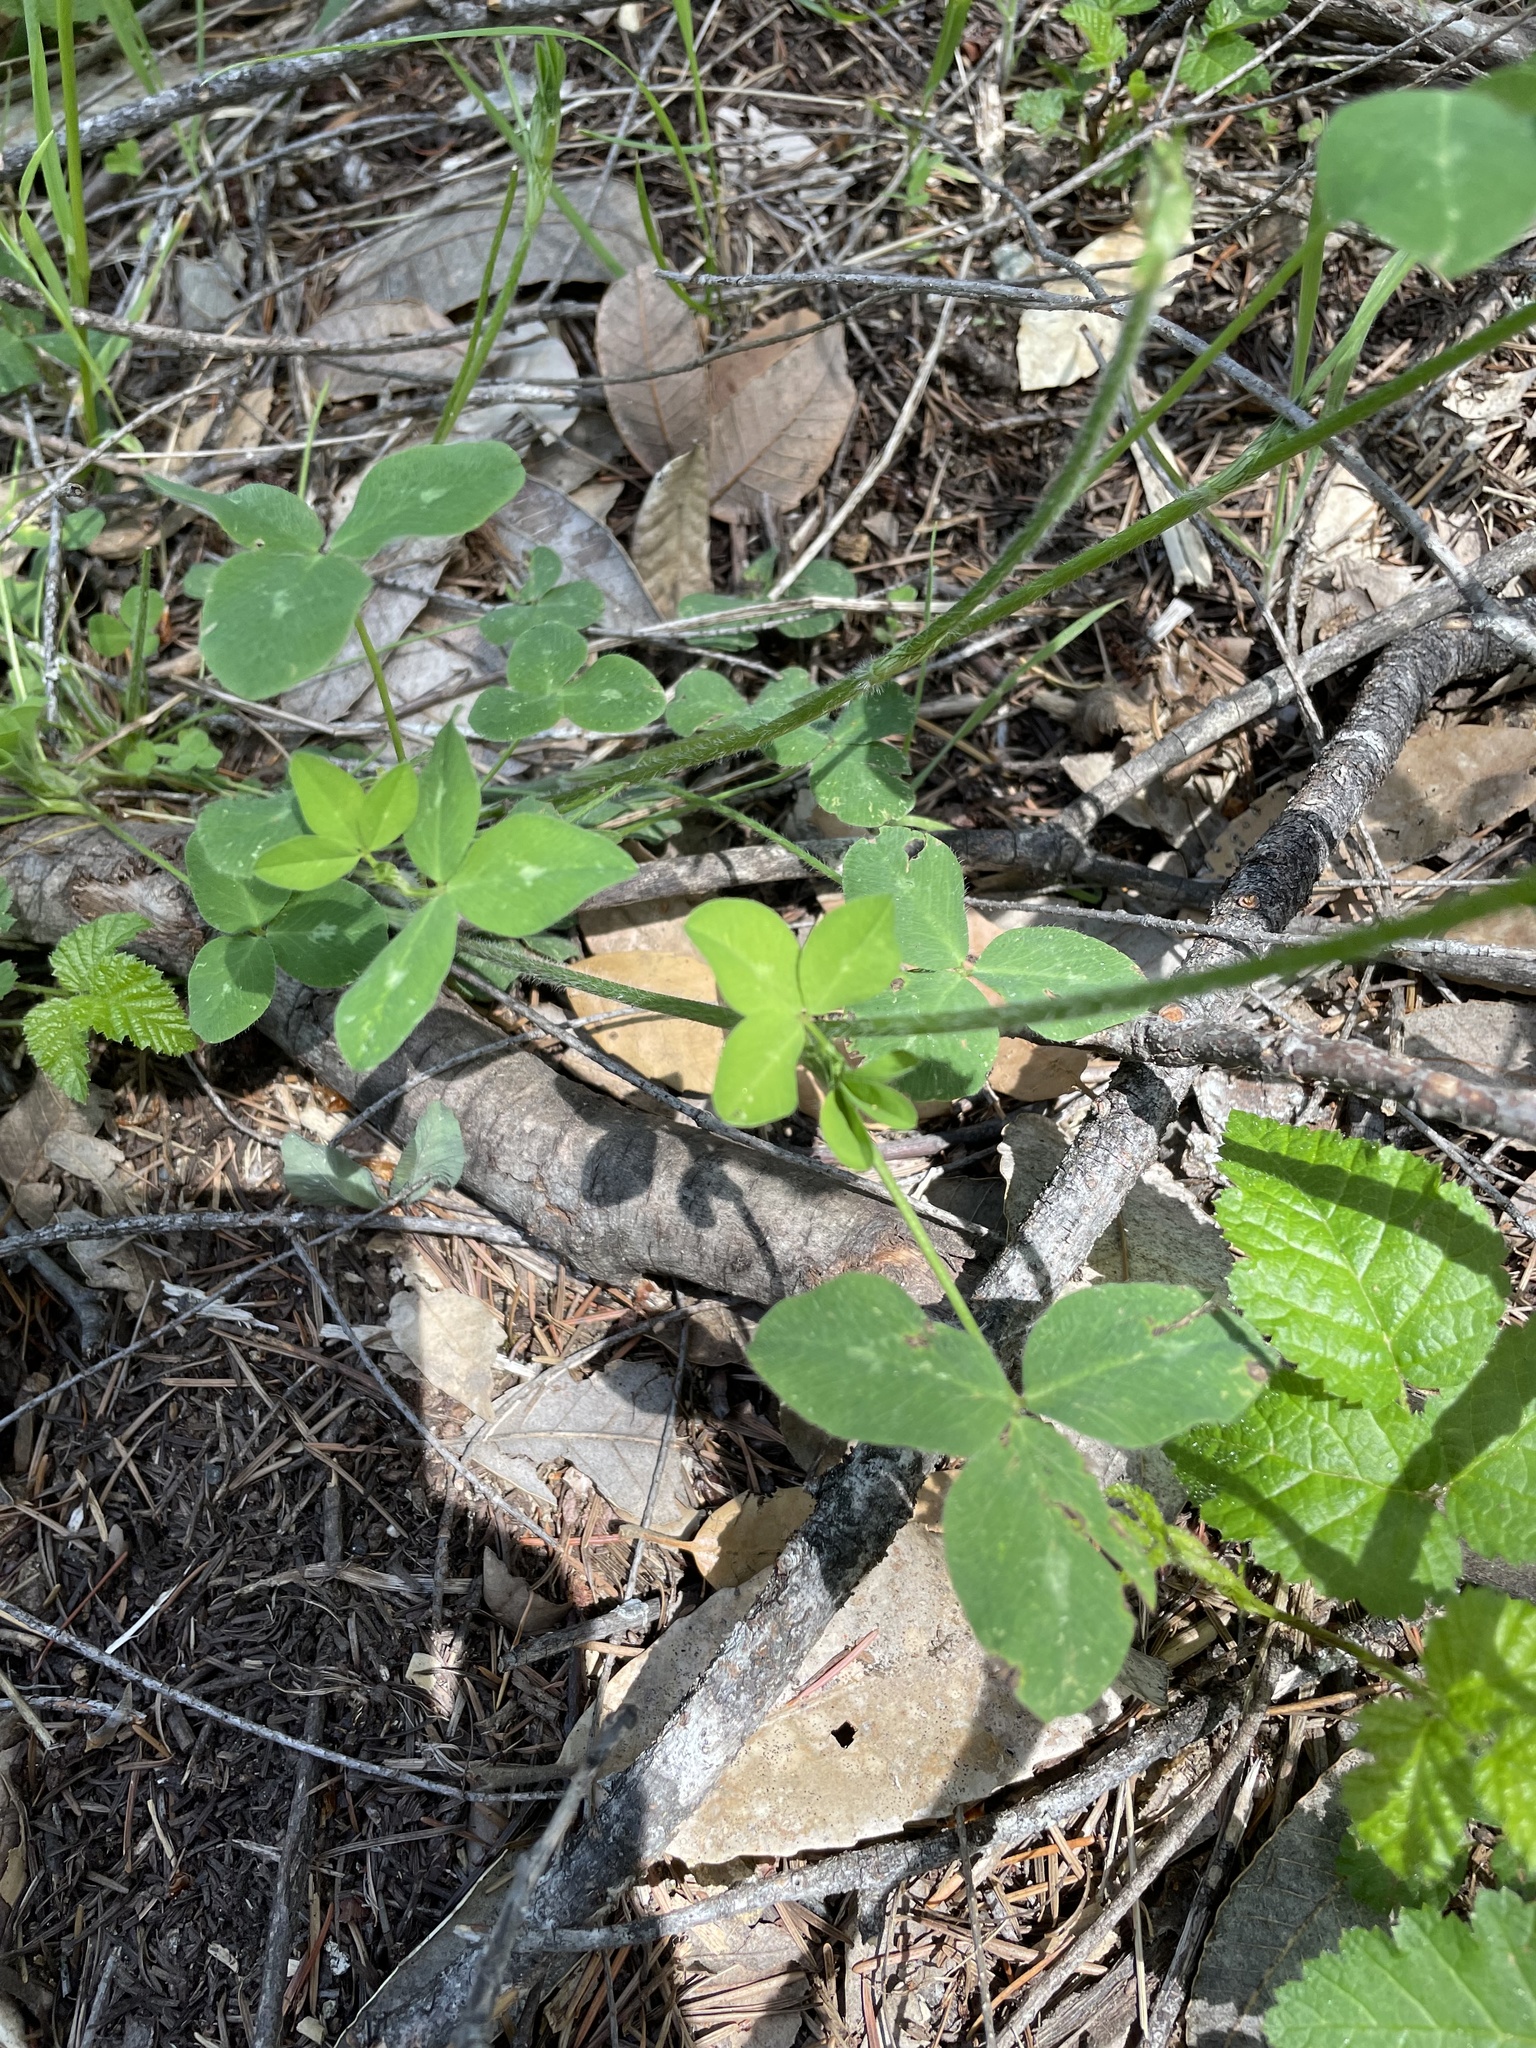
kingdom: Plantae
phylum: Tracheophyta
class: Magnoliopsida
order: Fabales
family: Fabaceae
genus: Trifolium
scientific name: Trifolium pratense
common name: Red clover
